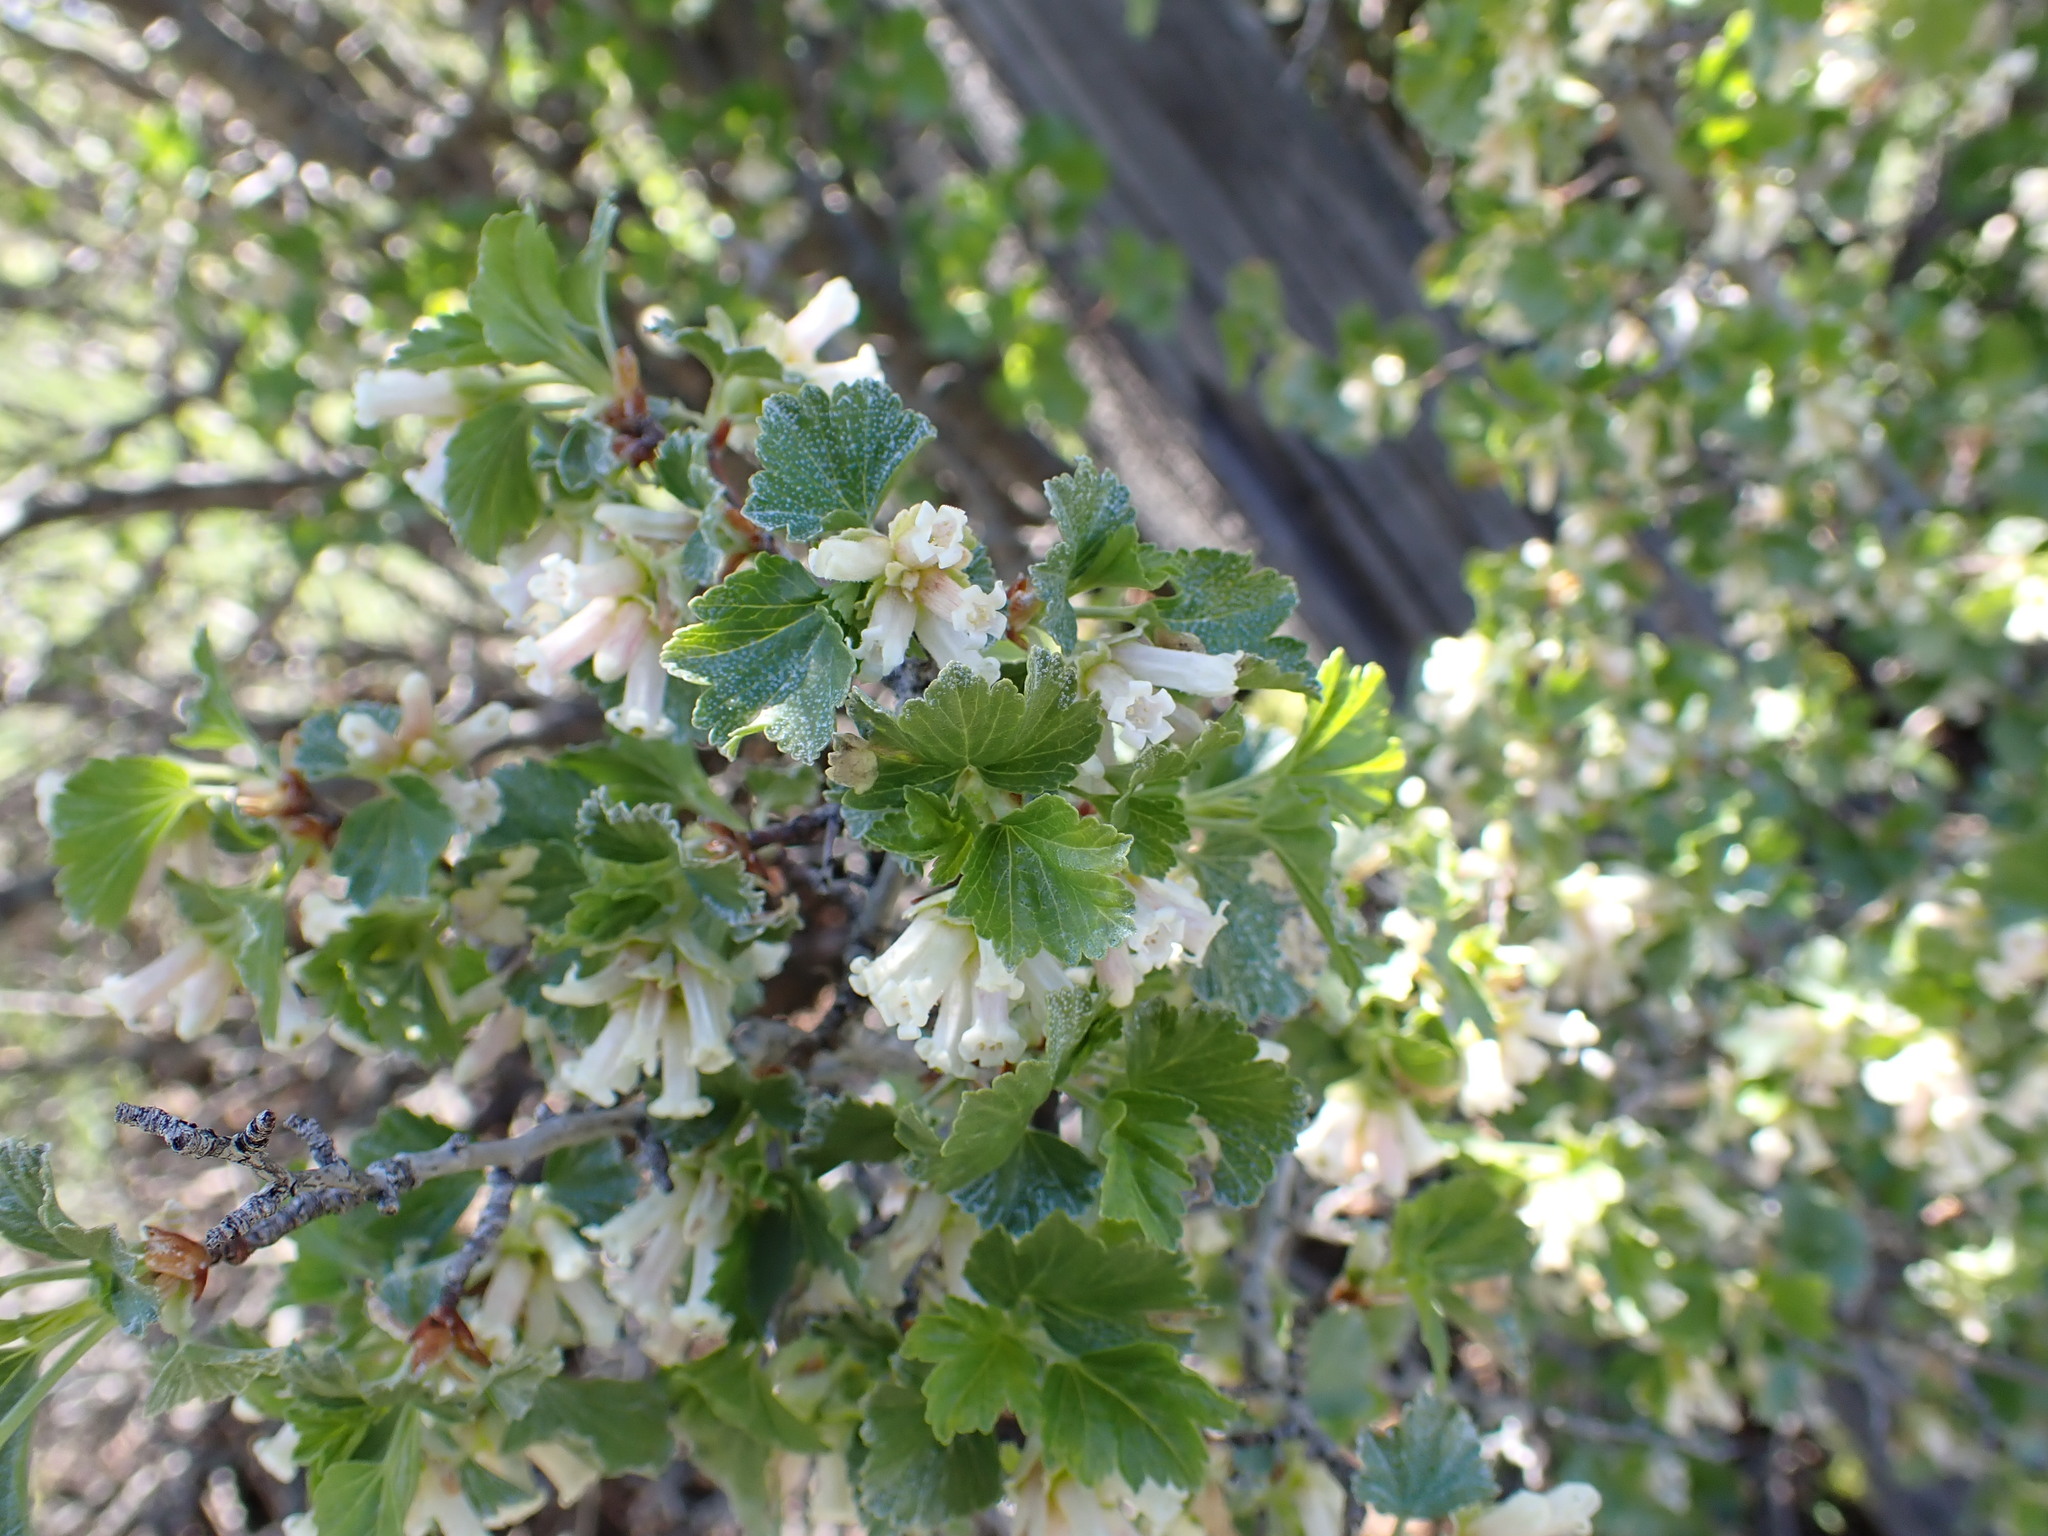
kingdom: Plantae
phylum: Tracheophyta
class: Magnoliopsida
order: Saxifragales
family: Grossulariaceae
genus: Ribes
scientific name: Ribes cereum
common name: Wax currant
